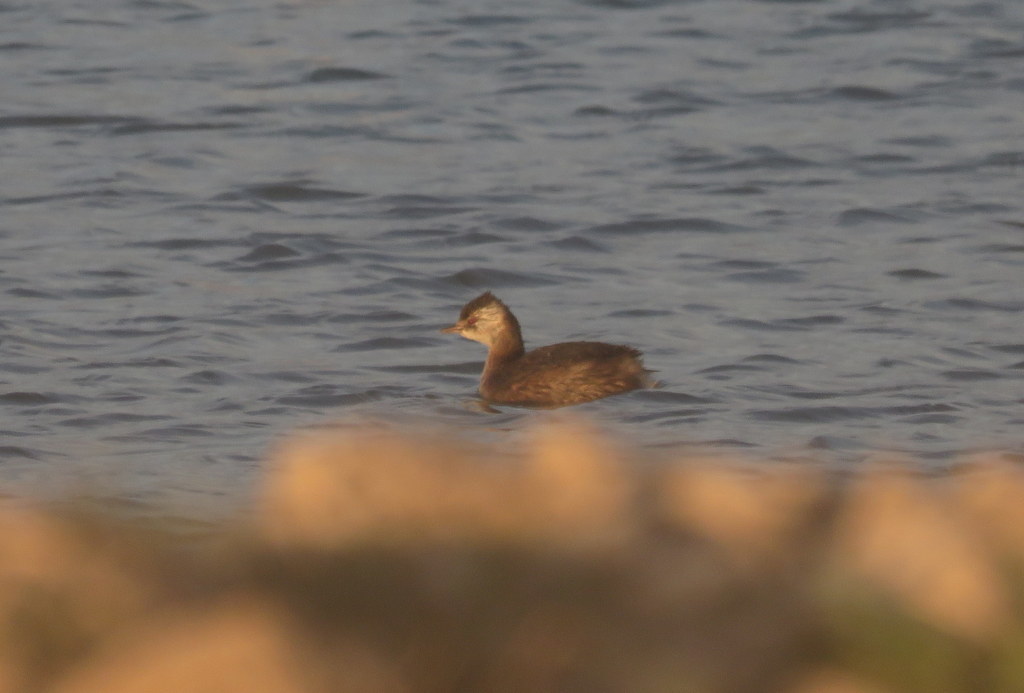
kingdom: Animalia
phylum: Chordata
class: Aves
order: Podicipediformes
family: Podicipedidae
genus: Rollandia
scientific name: Rollandia rolland
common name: White-tufted grebe
